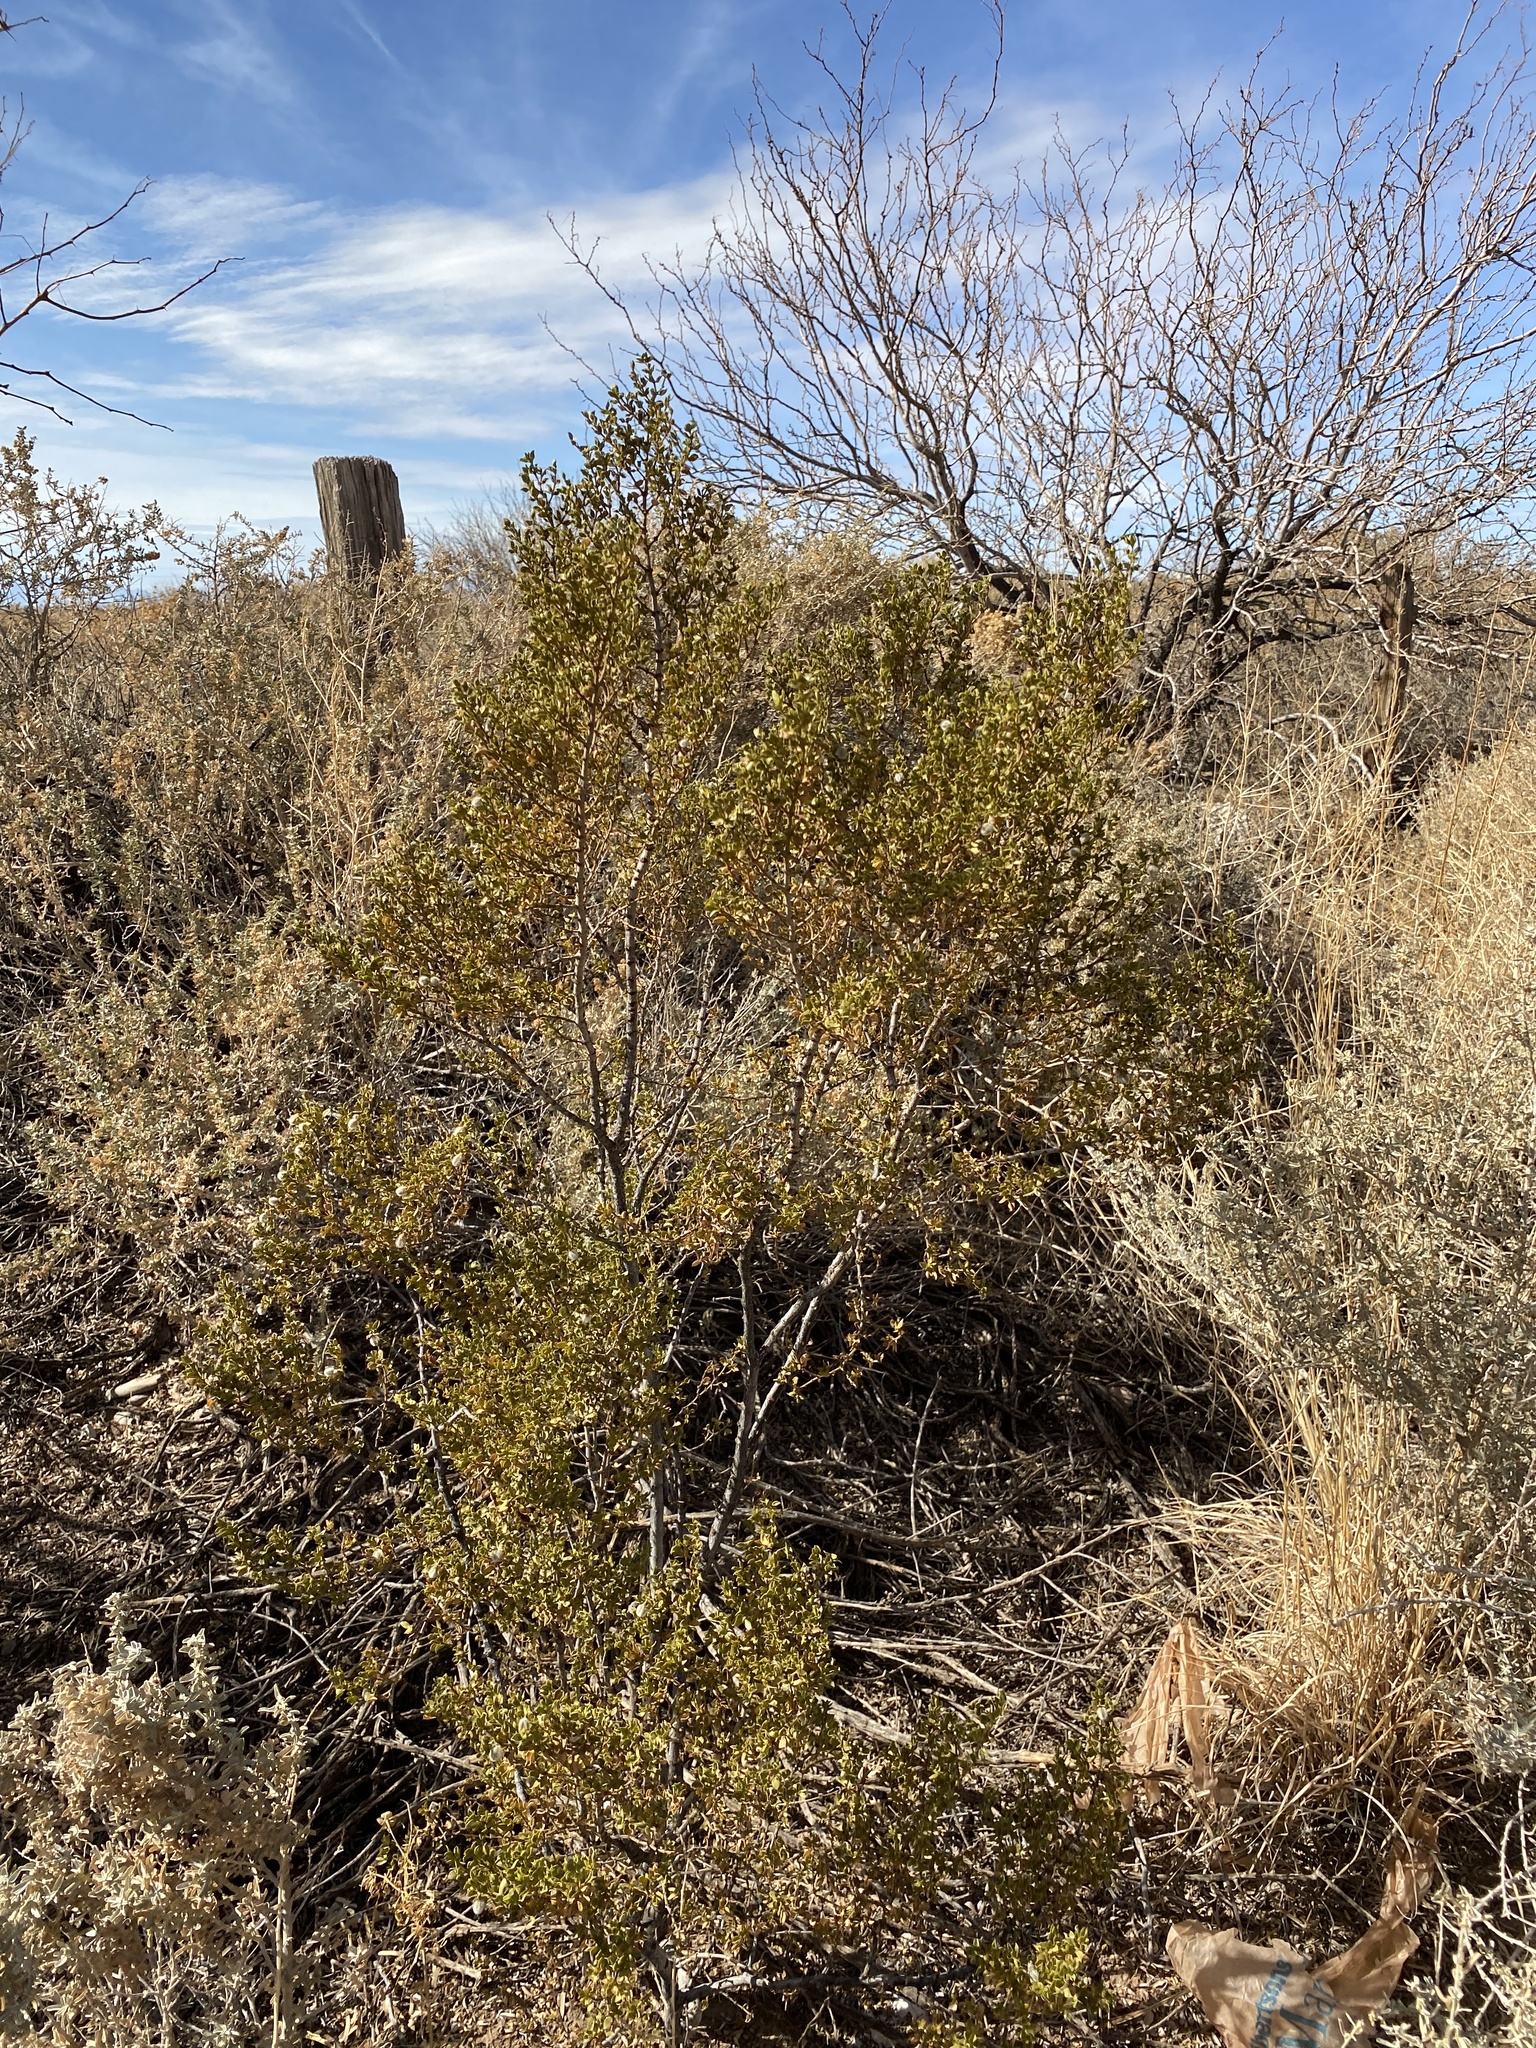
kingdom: Plantae
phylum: Tracheophyta
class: Magnoliopsida
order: Zygophyllales
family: Zygophyllaceae
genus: Larrea
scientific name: Larrea tridentata
